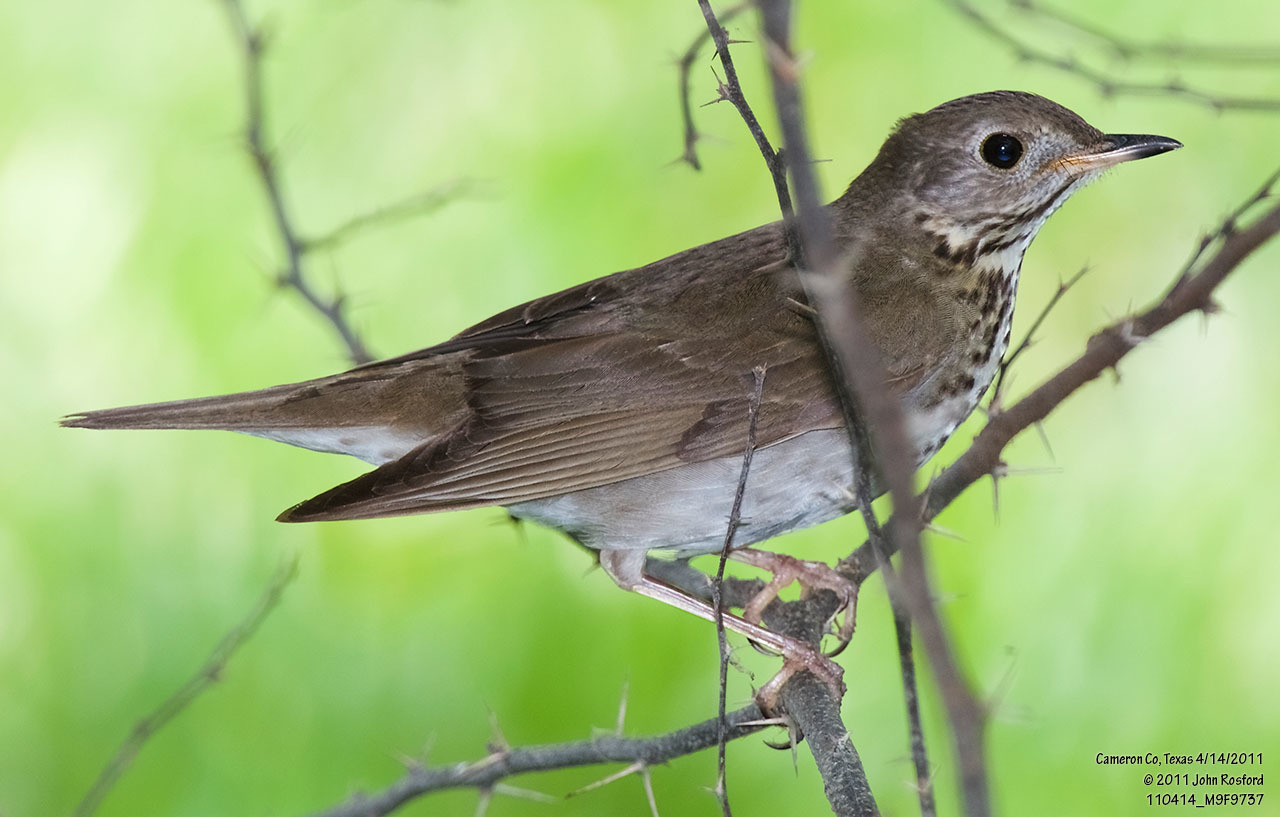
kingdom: Animalia
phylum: Chordata
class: Aves
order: Passeriformes
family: Turdidae
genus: Catharus
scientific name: Catharus minimus
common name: Grey-cheeked thrush
